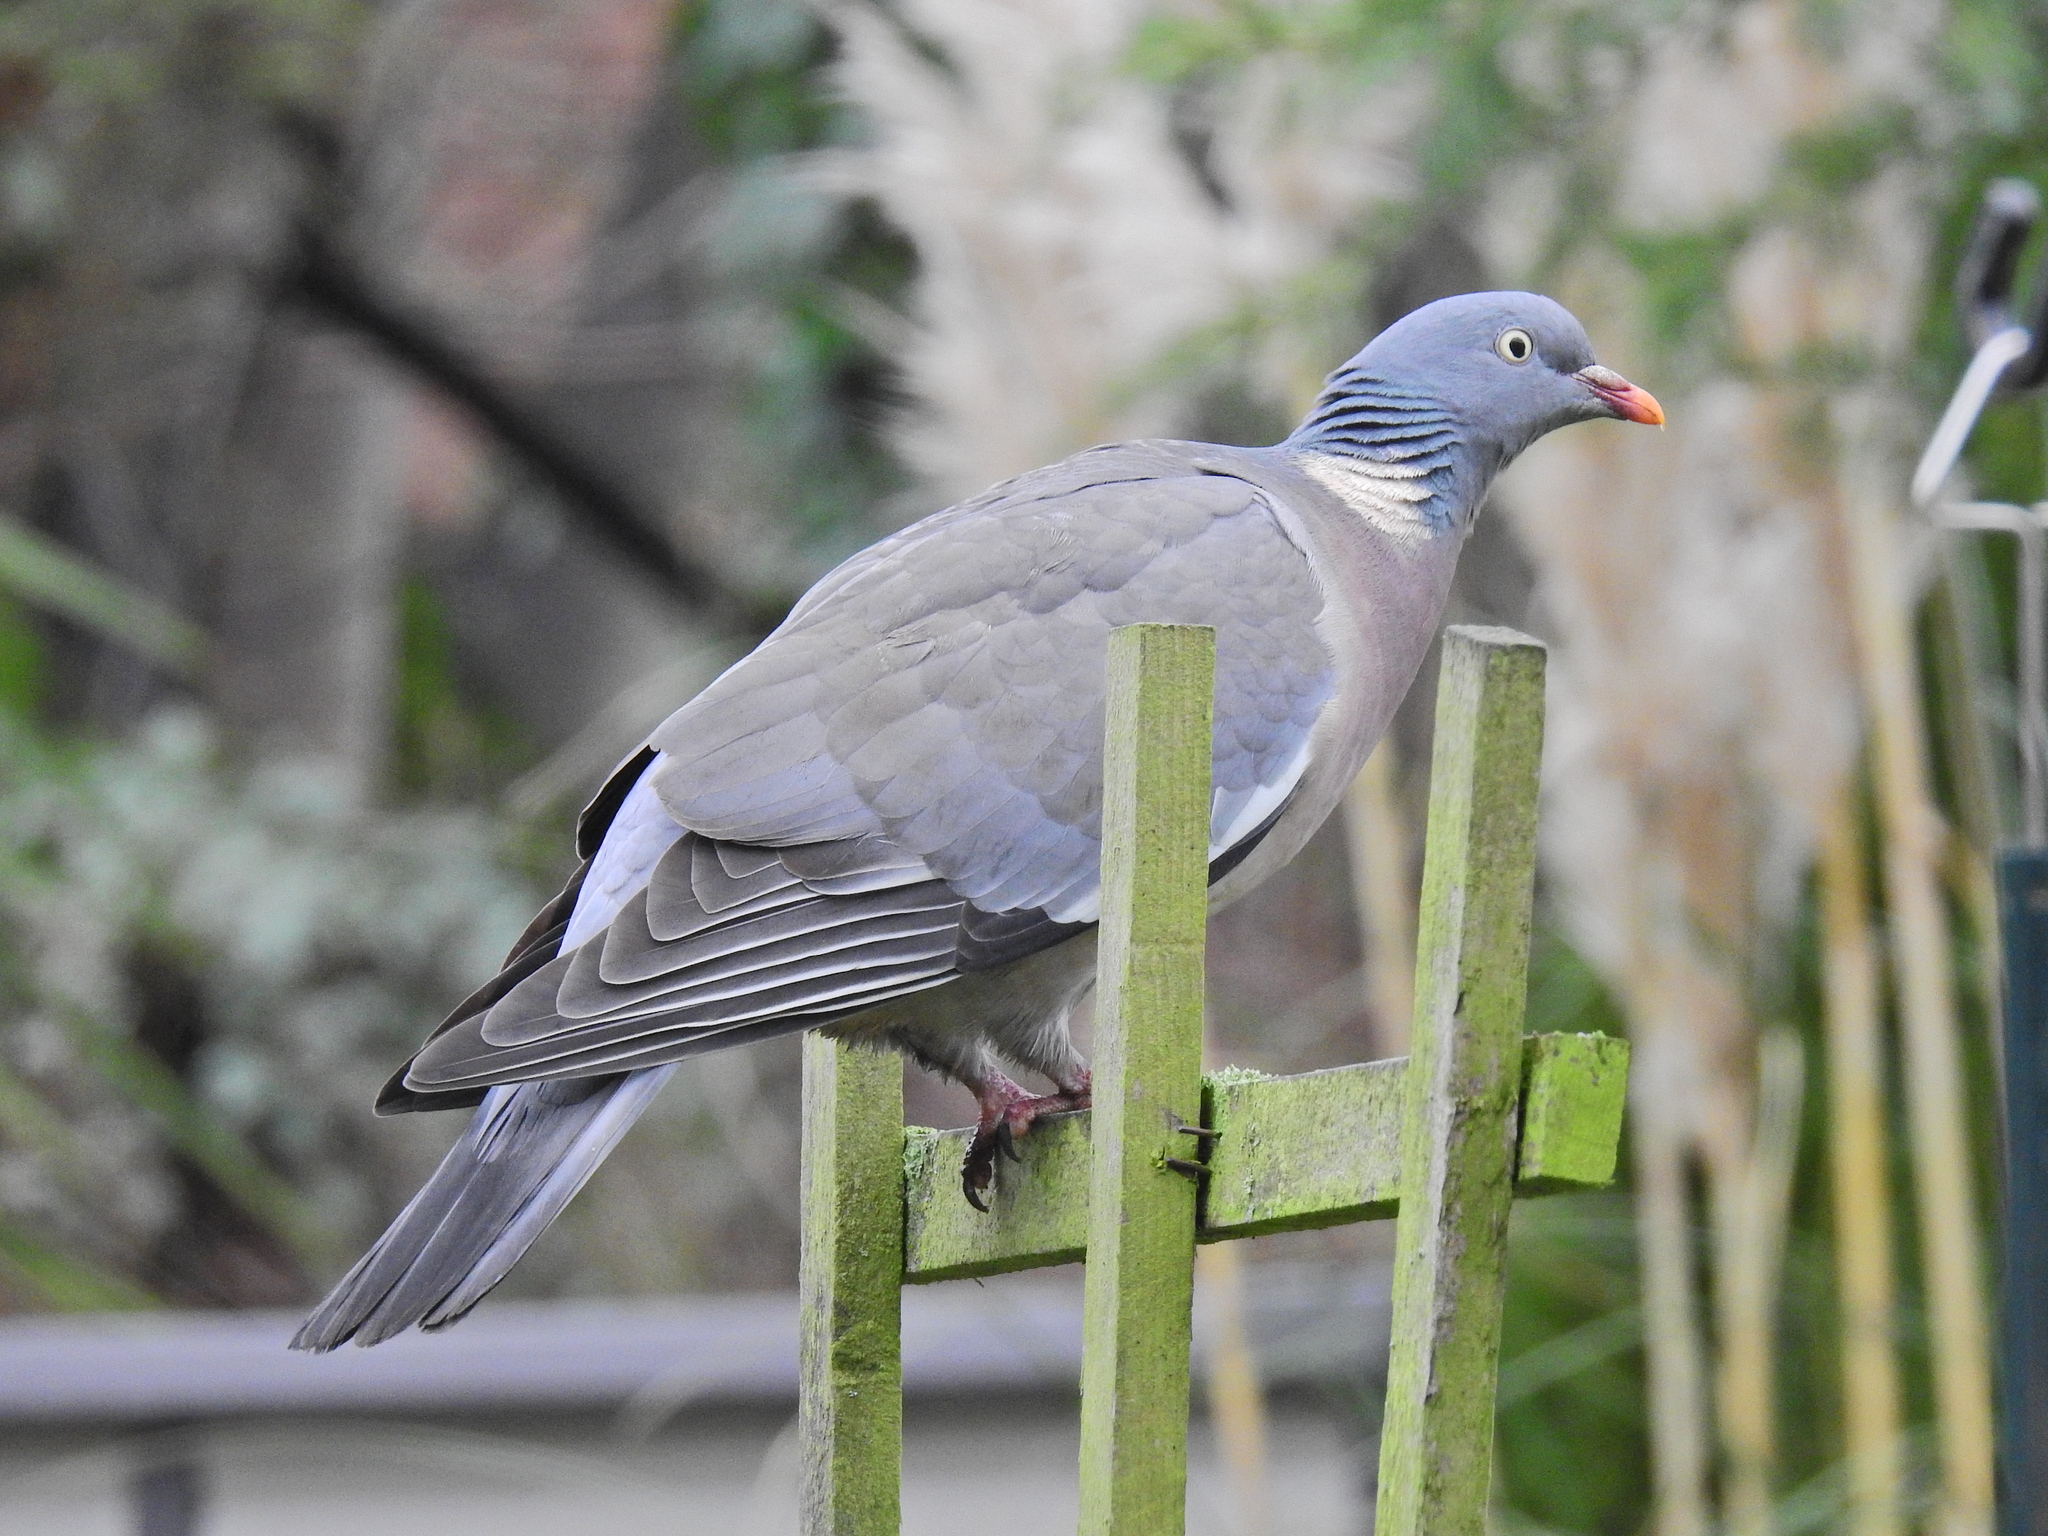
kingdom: Animalia
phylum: Chordata
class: Aves
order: Columbiformes
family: Columbidae
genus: Columba
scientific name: Columba palumbus
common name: Common wood pigeon
